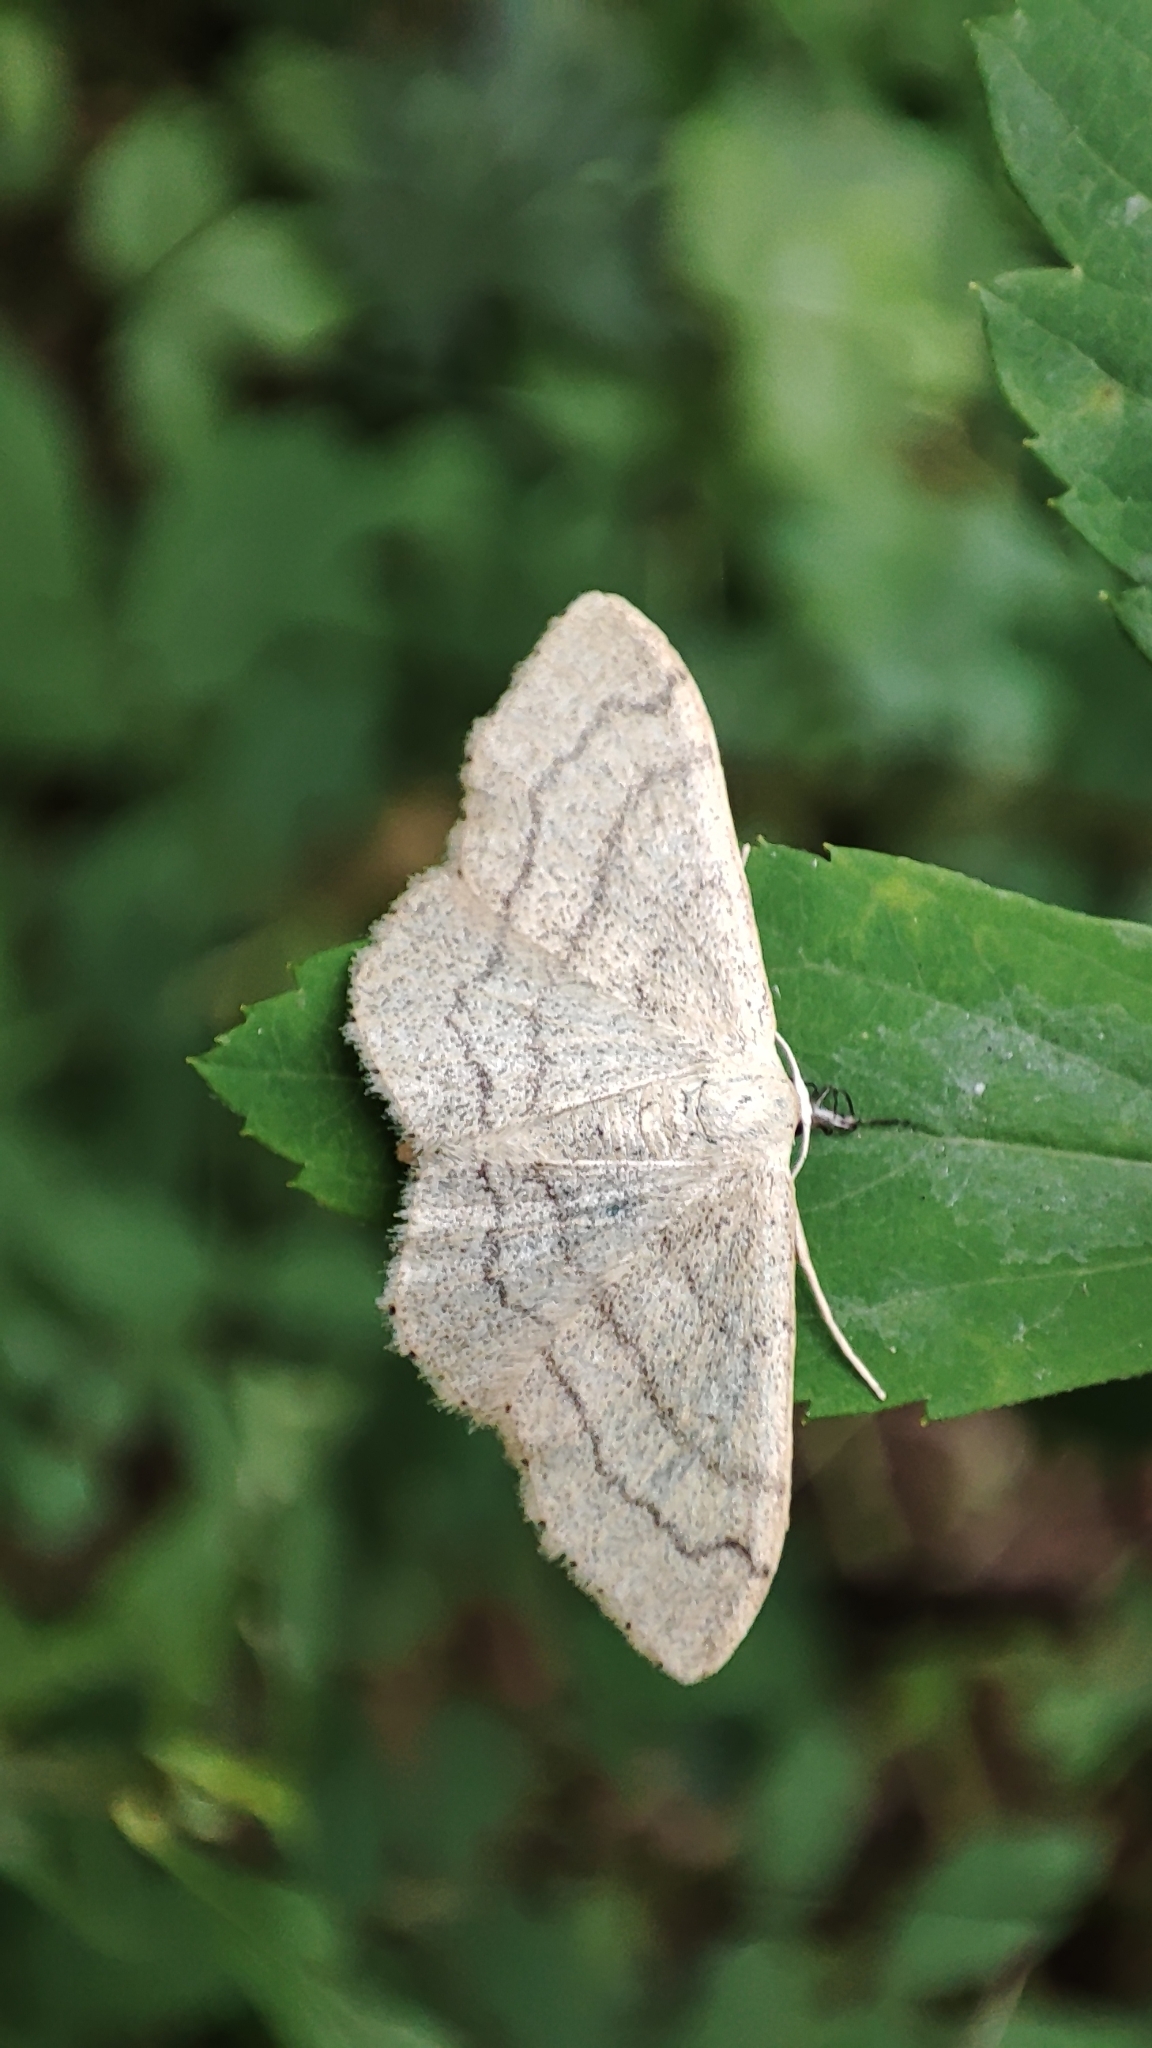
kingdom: Animalia
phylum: Arthropoda
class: Insecta
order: Lepidoptera
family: Geometridae
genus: Idaea
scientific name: Idaea aversata
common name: Riband wave
